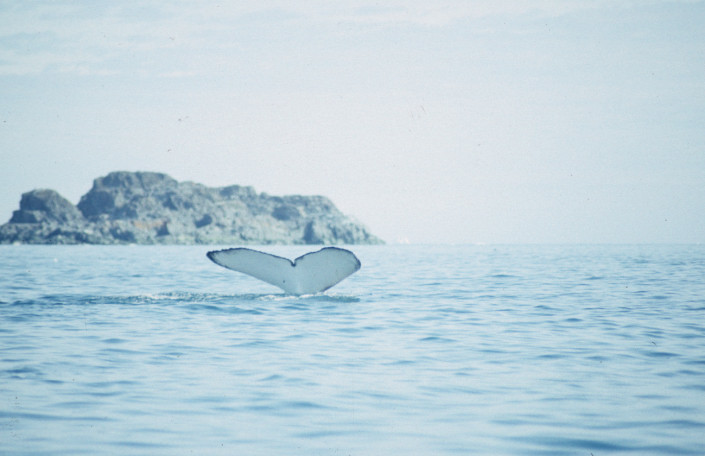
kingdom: Animalia
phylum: Chordata
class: Mammalia
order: Cetacea
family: Balaenopteridae
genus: Megaptera
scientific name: Megaptera novaeangliae
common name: Humpback whale
